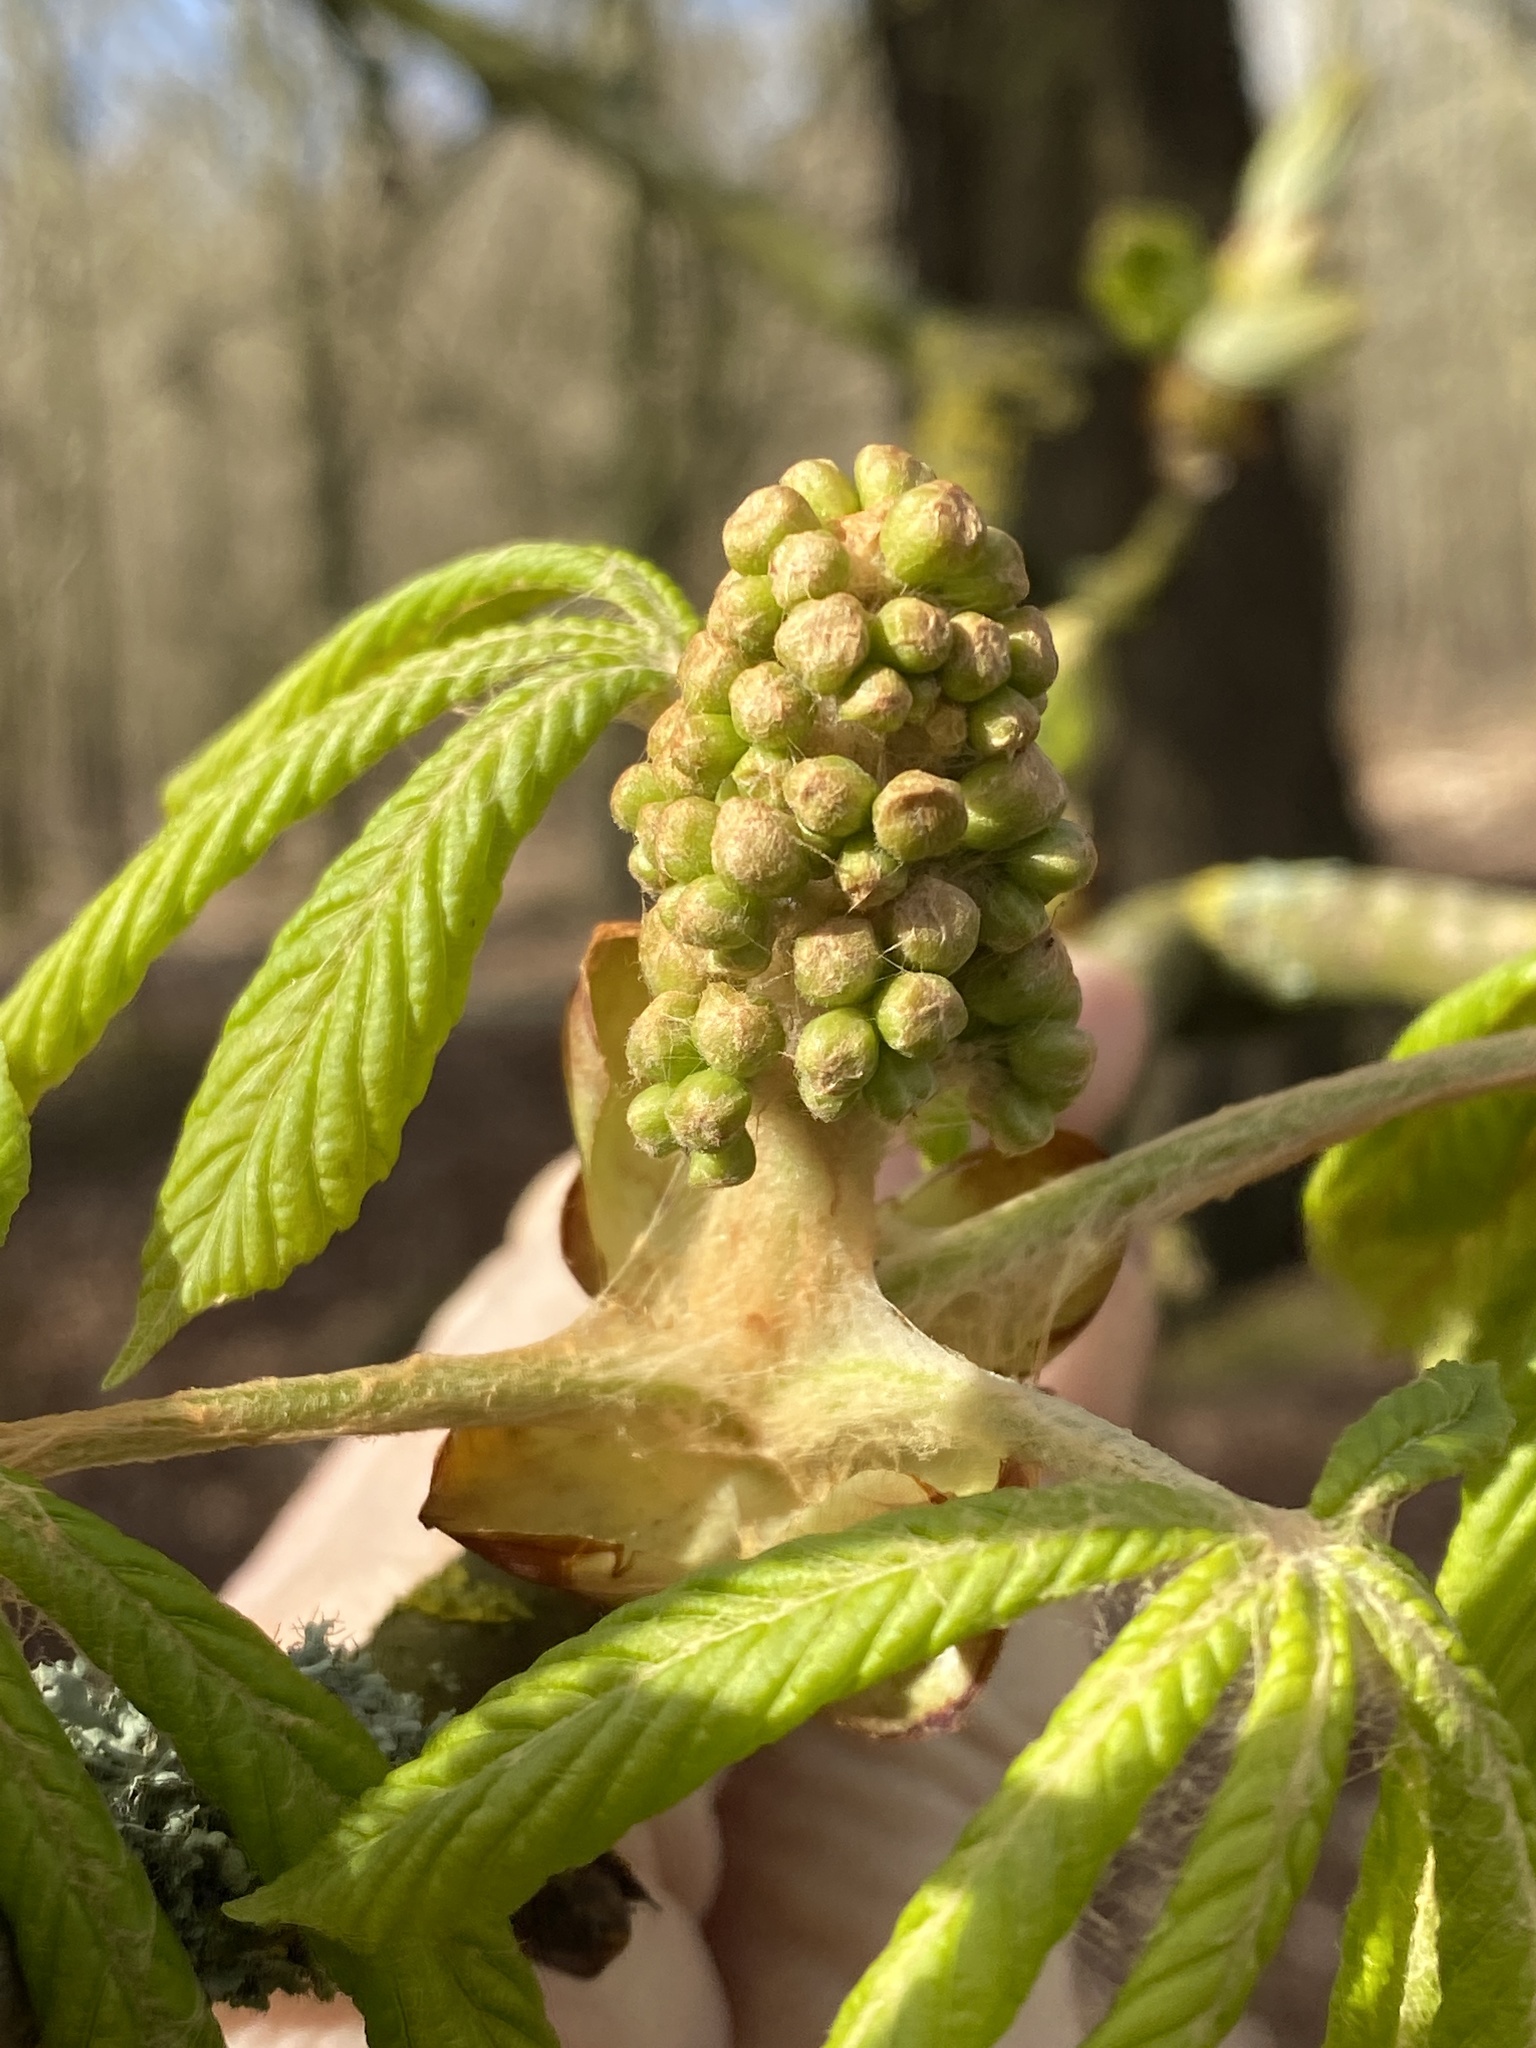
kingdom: Plantae
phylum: Tracheophyta
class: Magnoliopsida
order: Sapindales
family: Sapindaceae
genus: Aesculus
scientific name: Aesculus hippocastanum
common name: Horse-chestnut
